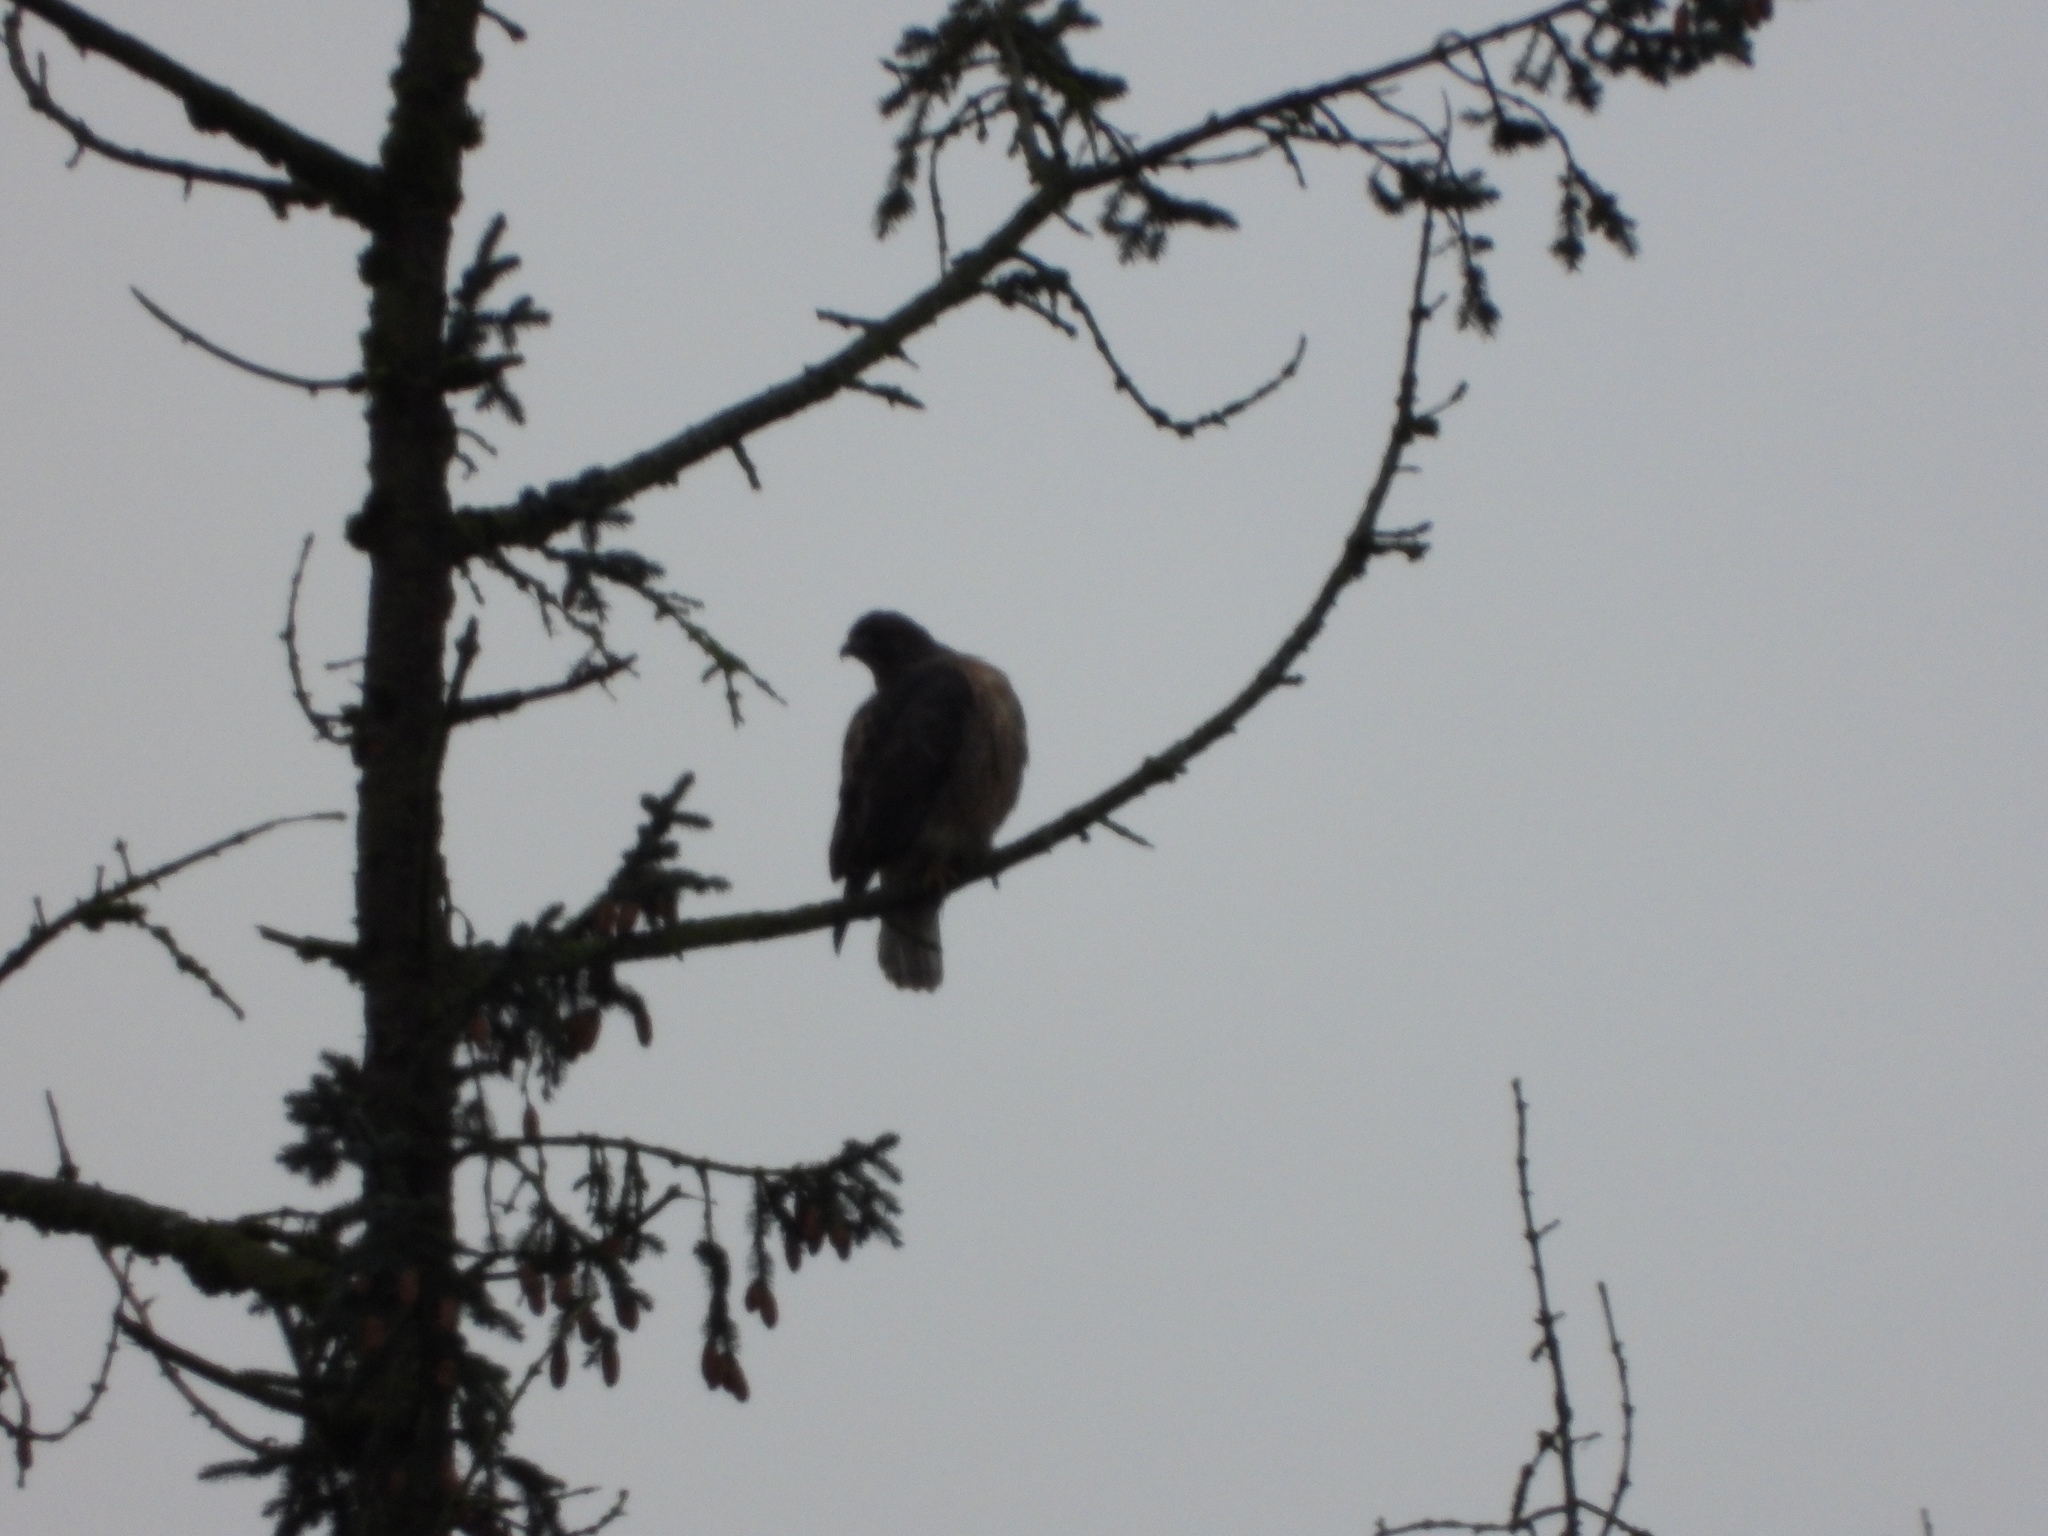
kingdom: Animalia
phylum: Chordata
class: Aves
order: Accipitriformes
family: Accipitridae
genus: Buteo
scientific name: Buteo jamaicensis
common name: Red-tailed hawk
